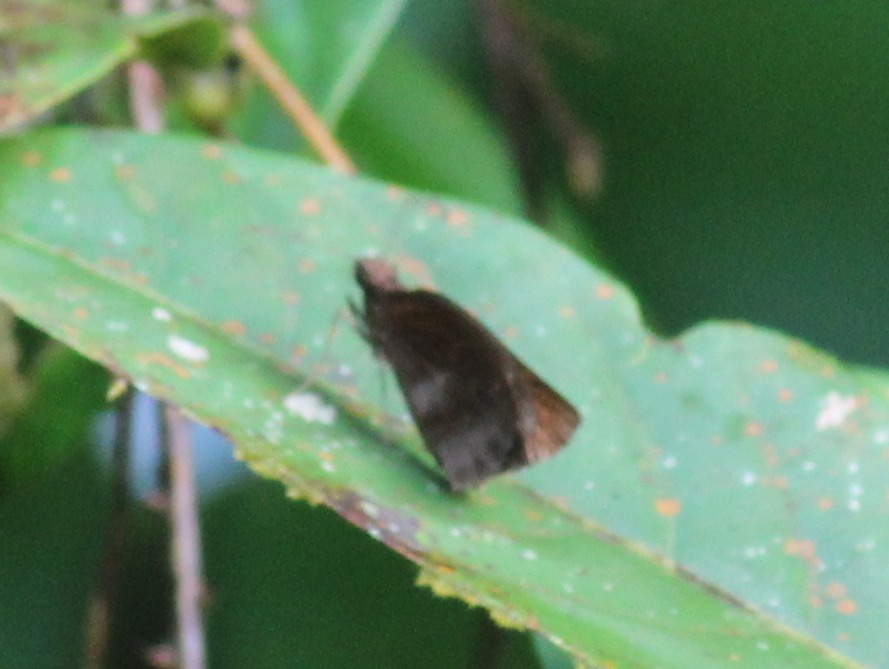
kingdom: Animalia
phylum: Arthropoda
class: Insecta
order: Lepidoptera
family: Hesperiidae
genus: Psolos
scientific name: Psolos fuligo
